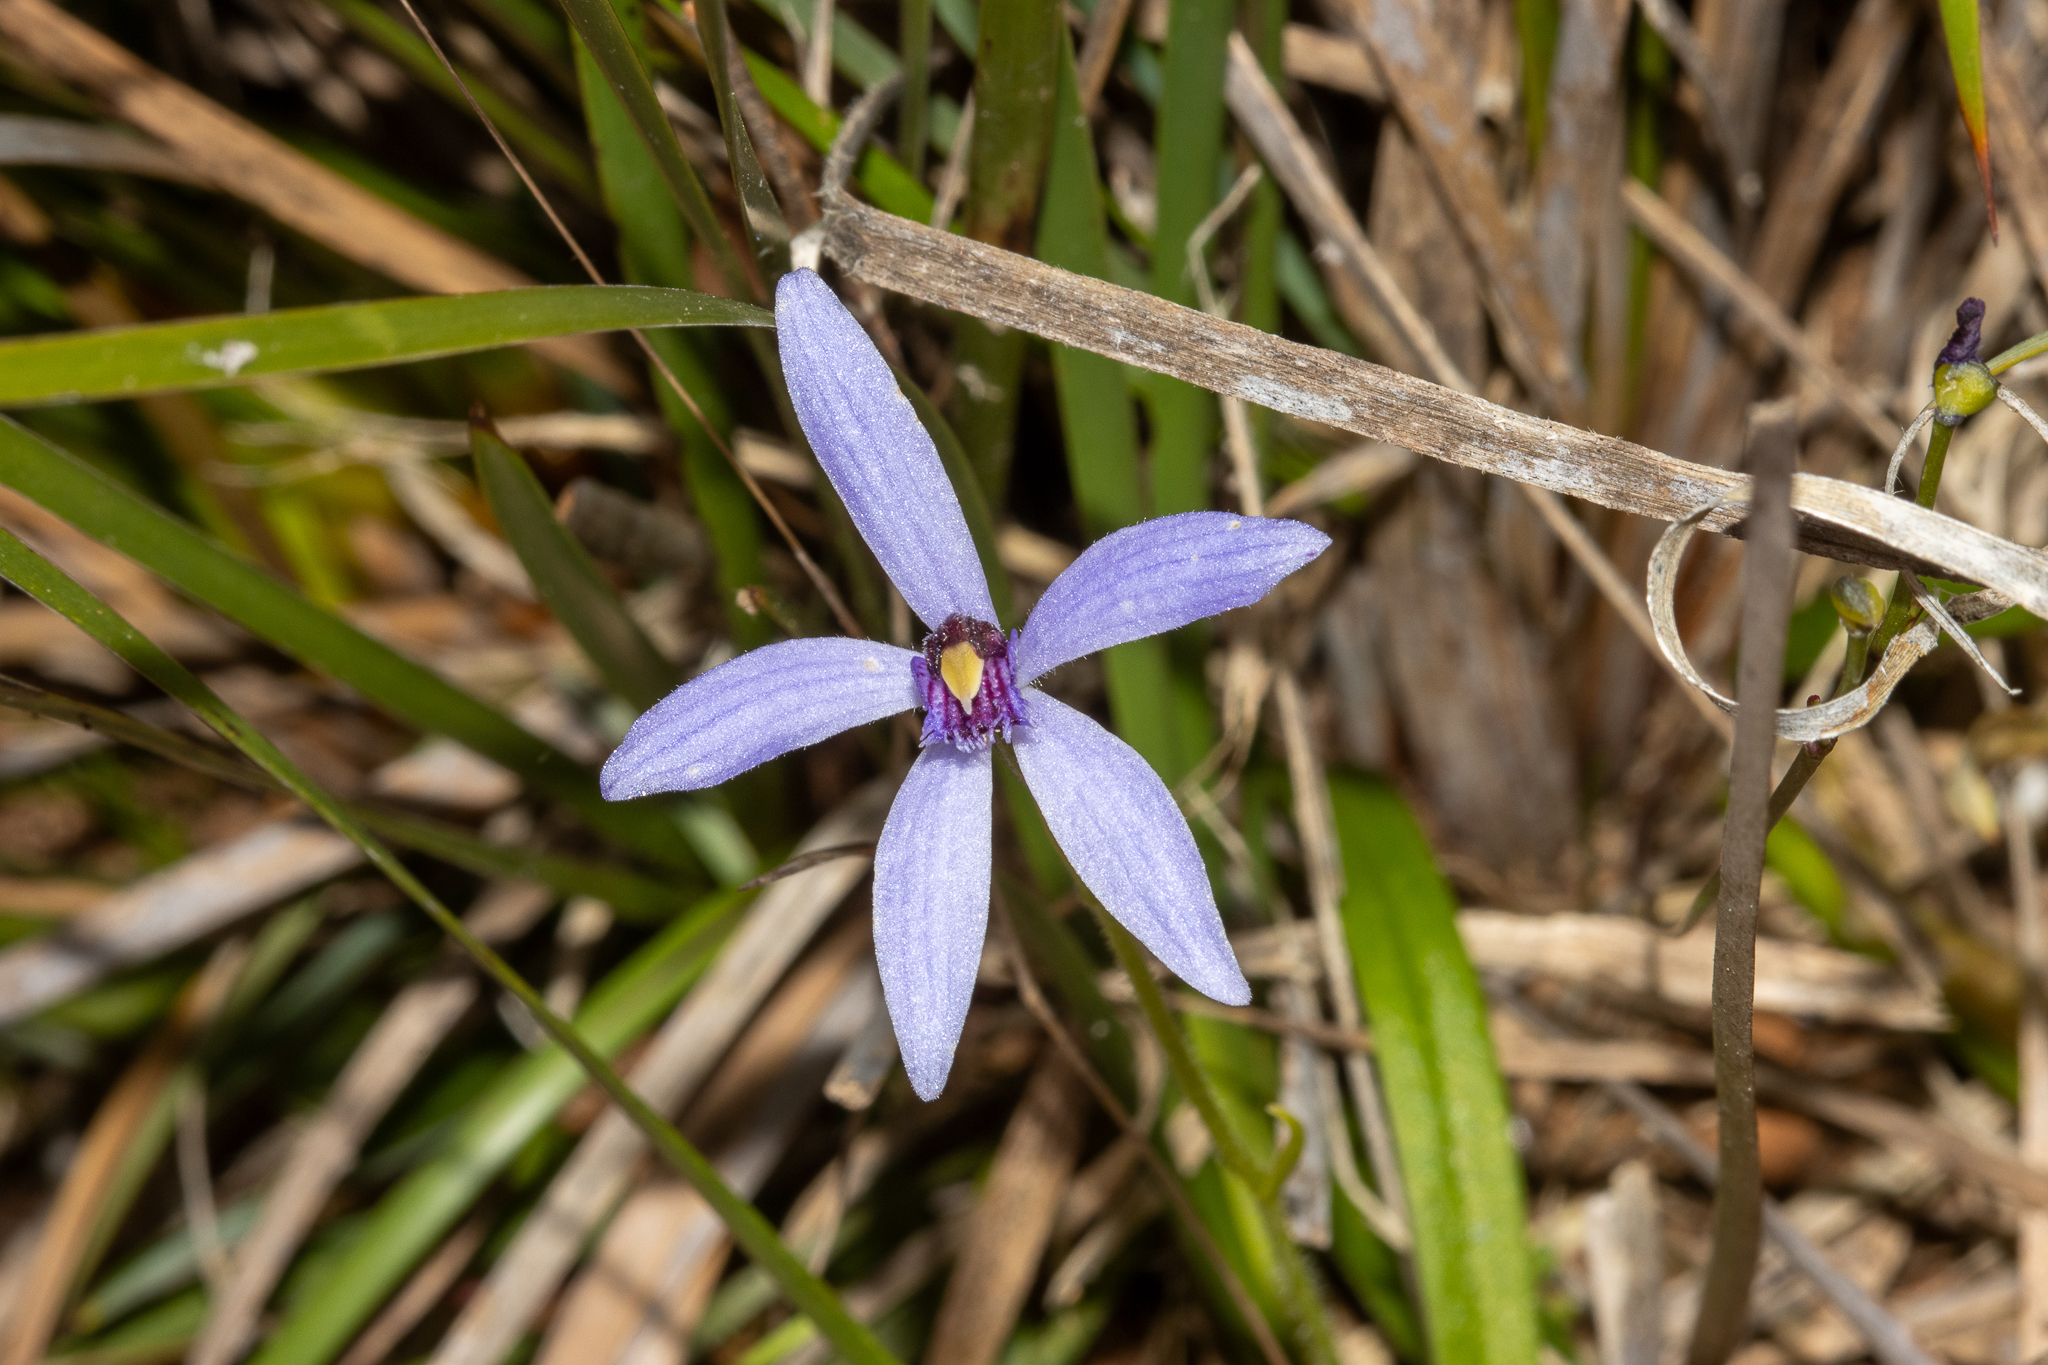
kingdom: Plantae
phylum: Tracheophyta
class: Liliopsida
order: Asparagales
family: Orchidaceae
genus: Pheladenia
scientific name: Pheladenia deformis
